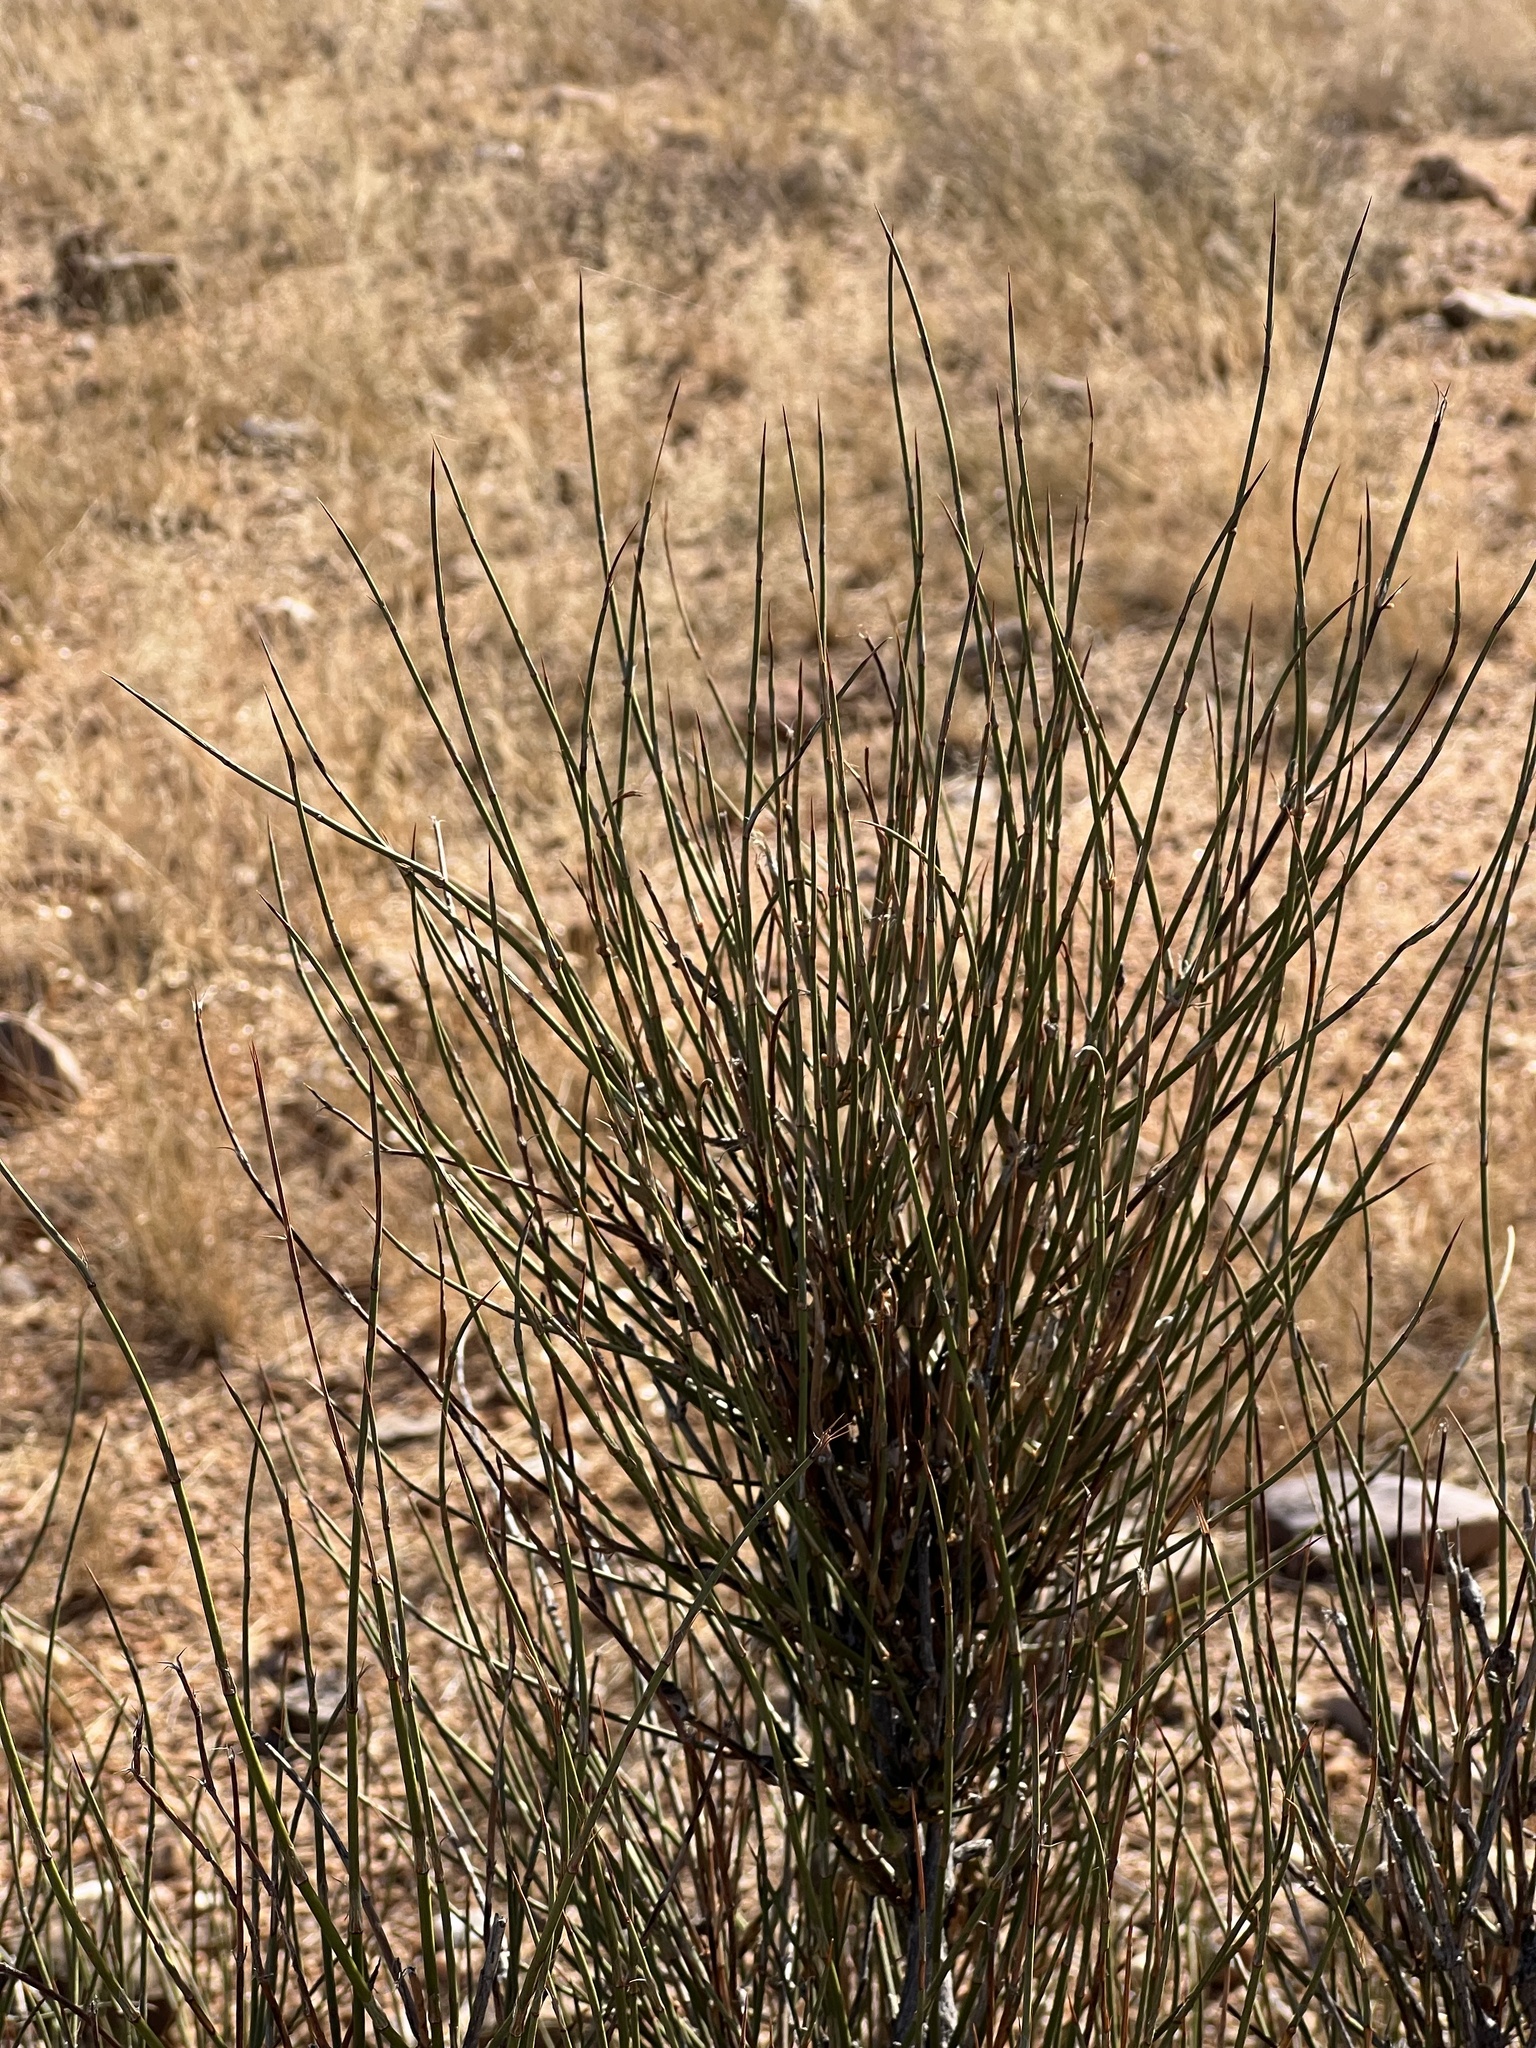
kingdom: Plantae
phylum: Tracheophyta
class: Gnetopsida
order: Ephedrales
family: Ephedraceae
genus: Ephedra
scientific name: Ephedra trifurca
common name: Mexican-tea
